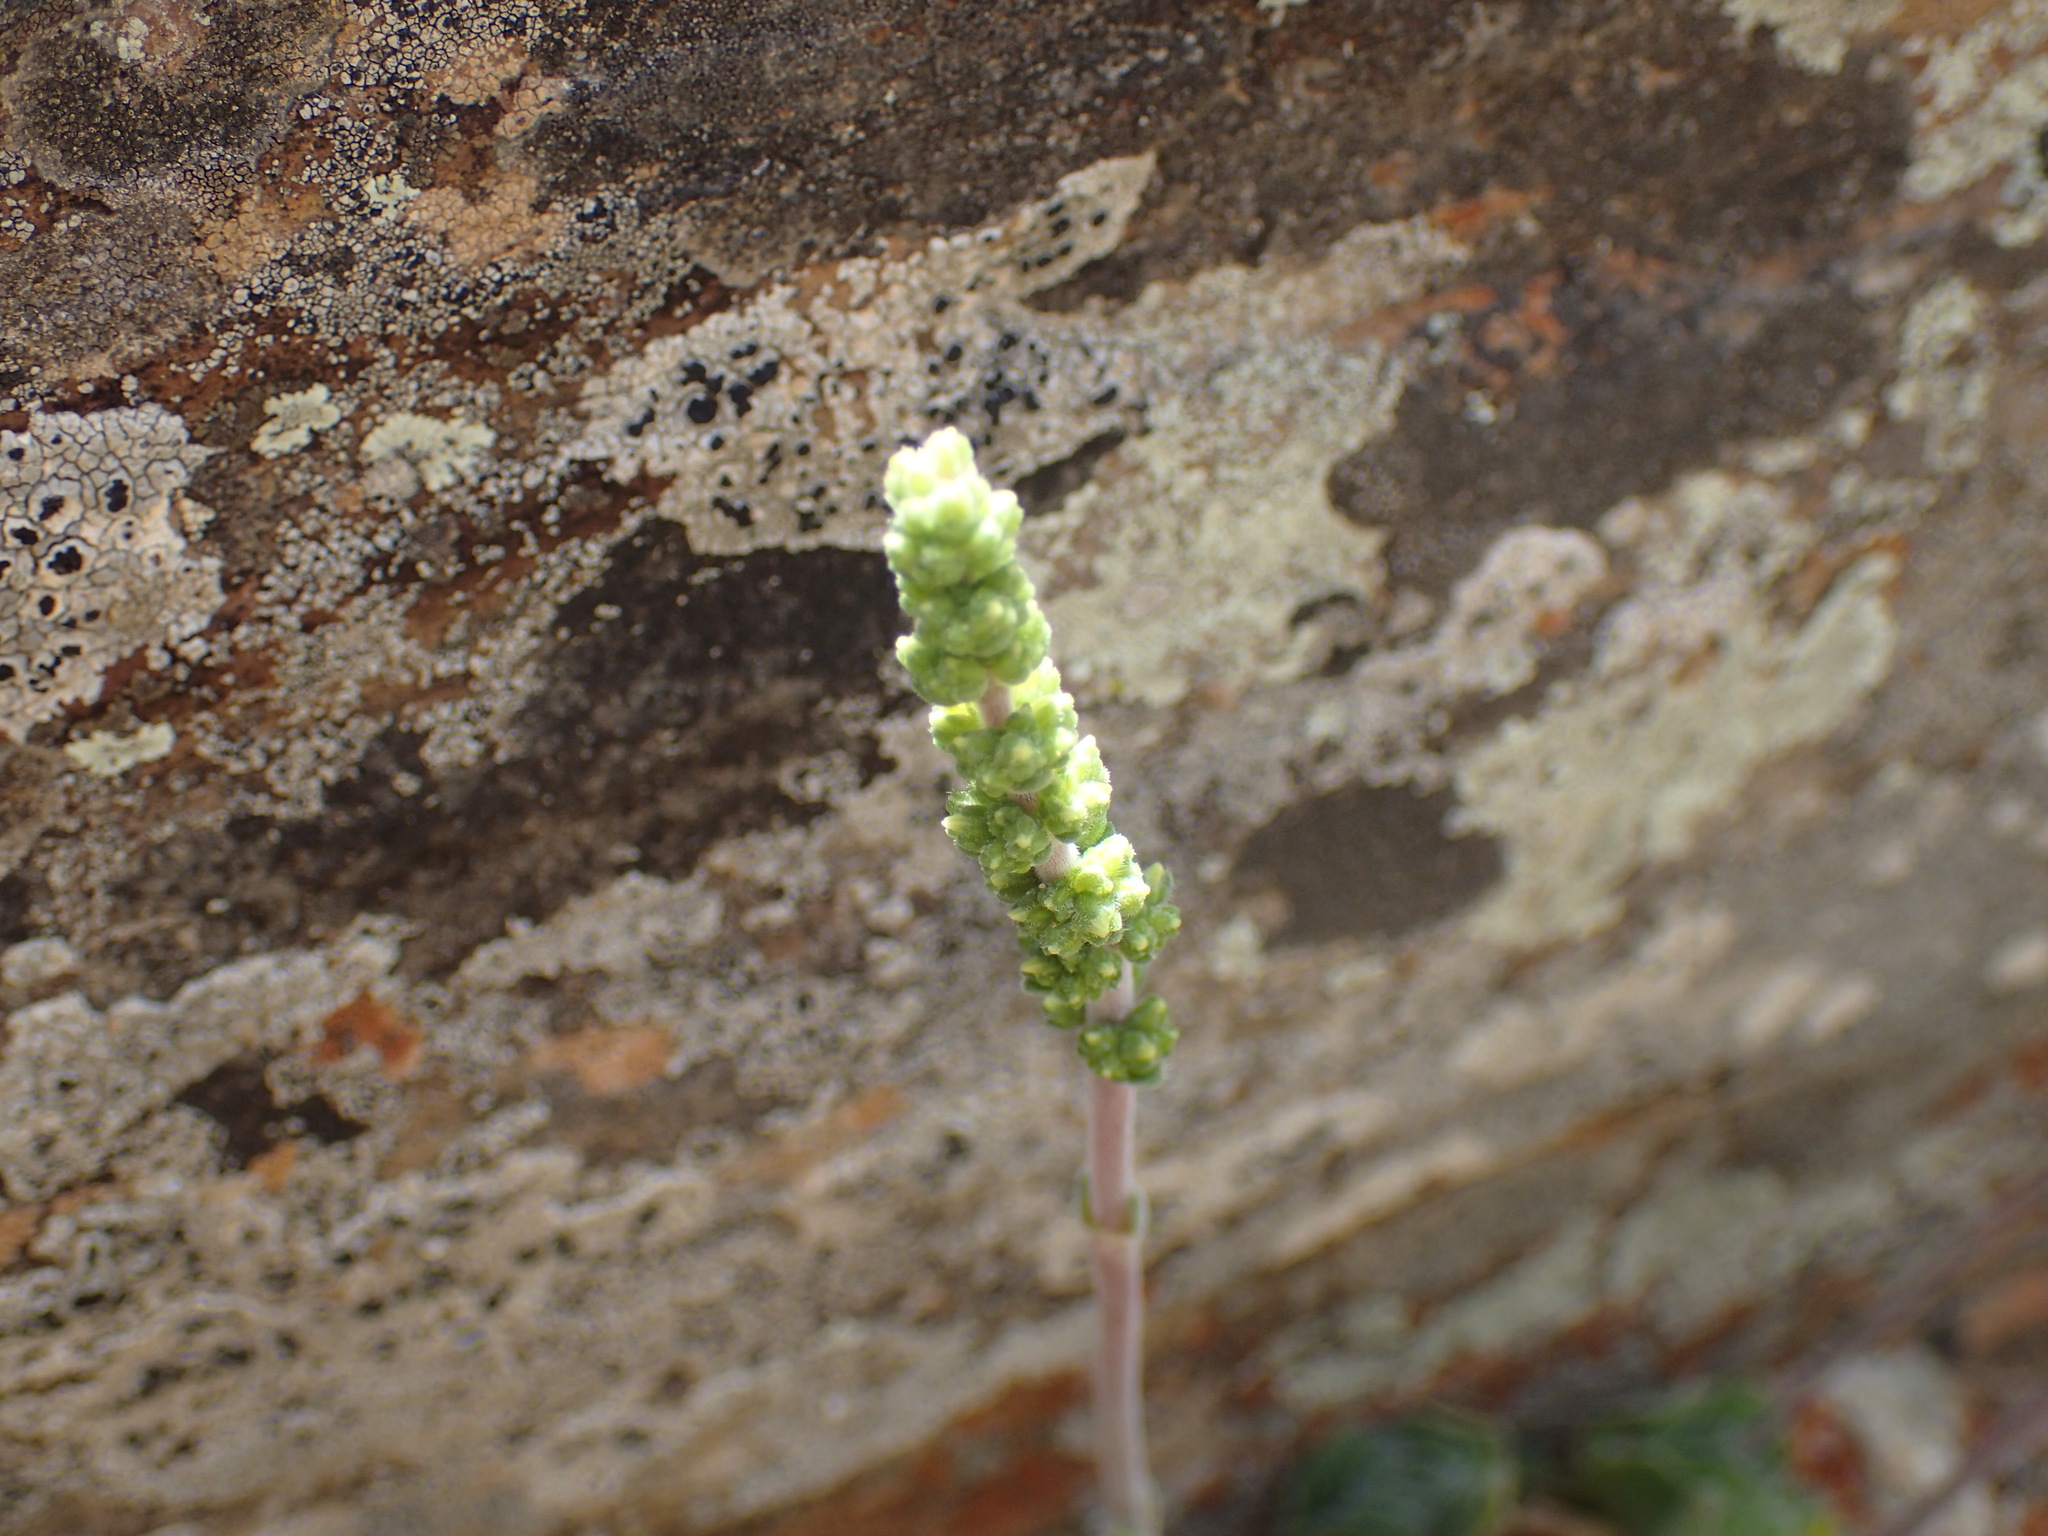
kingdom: Plantae
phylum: Tracheophyta
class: Magnoliopsida
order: Saxifragales
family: Crassulaceae
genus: Crassula
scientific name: Crassula tomentosa
